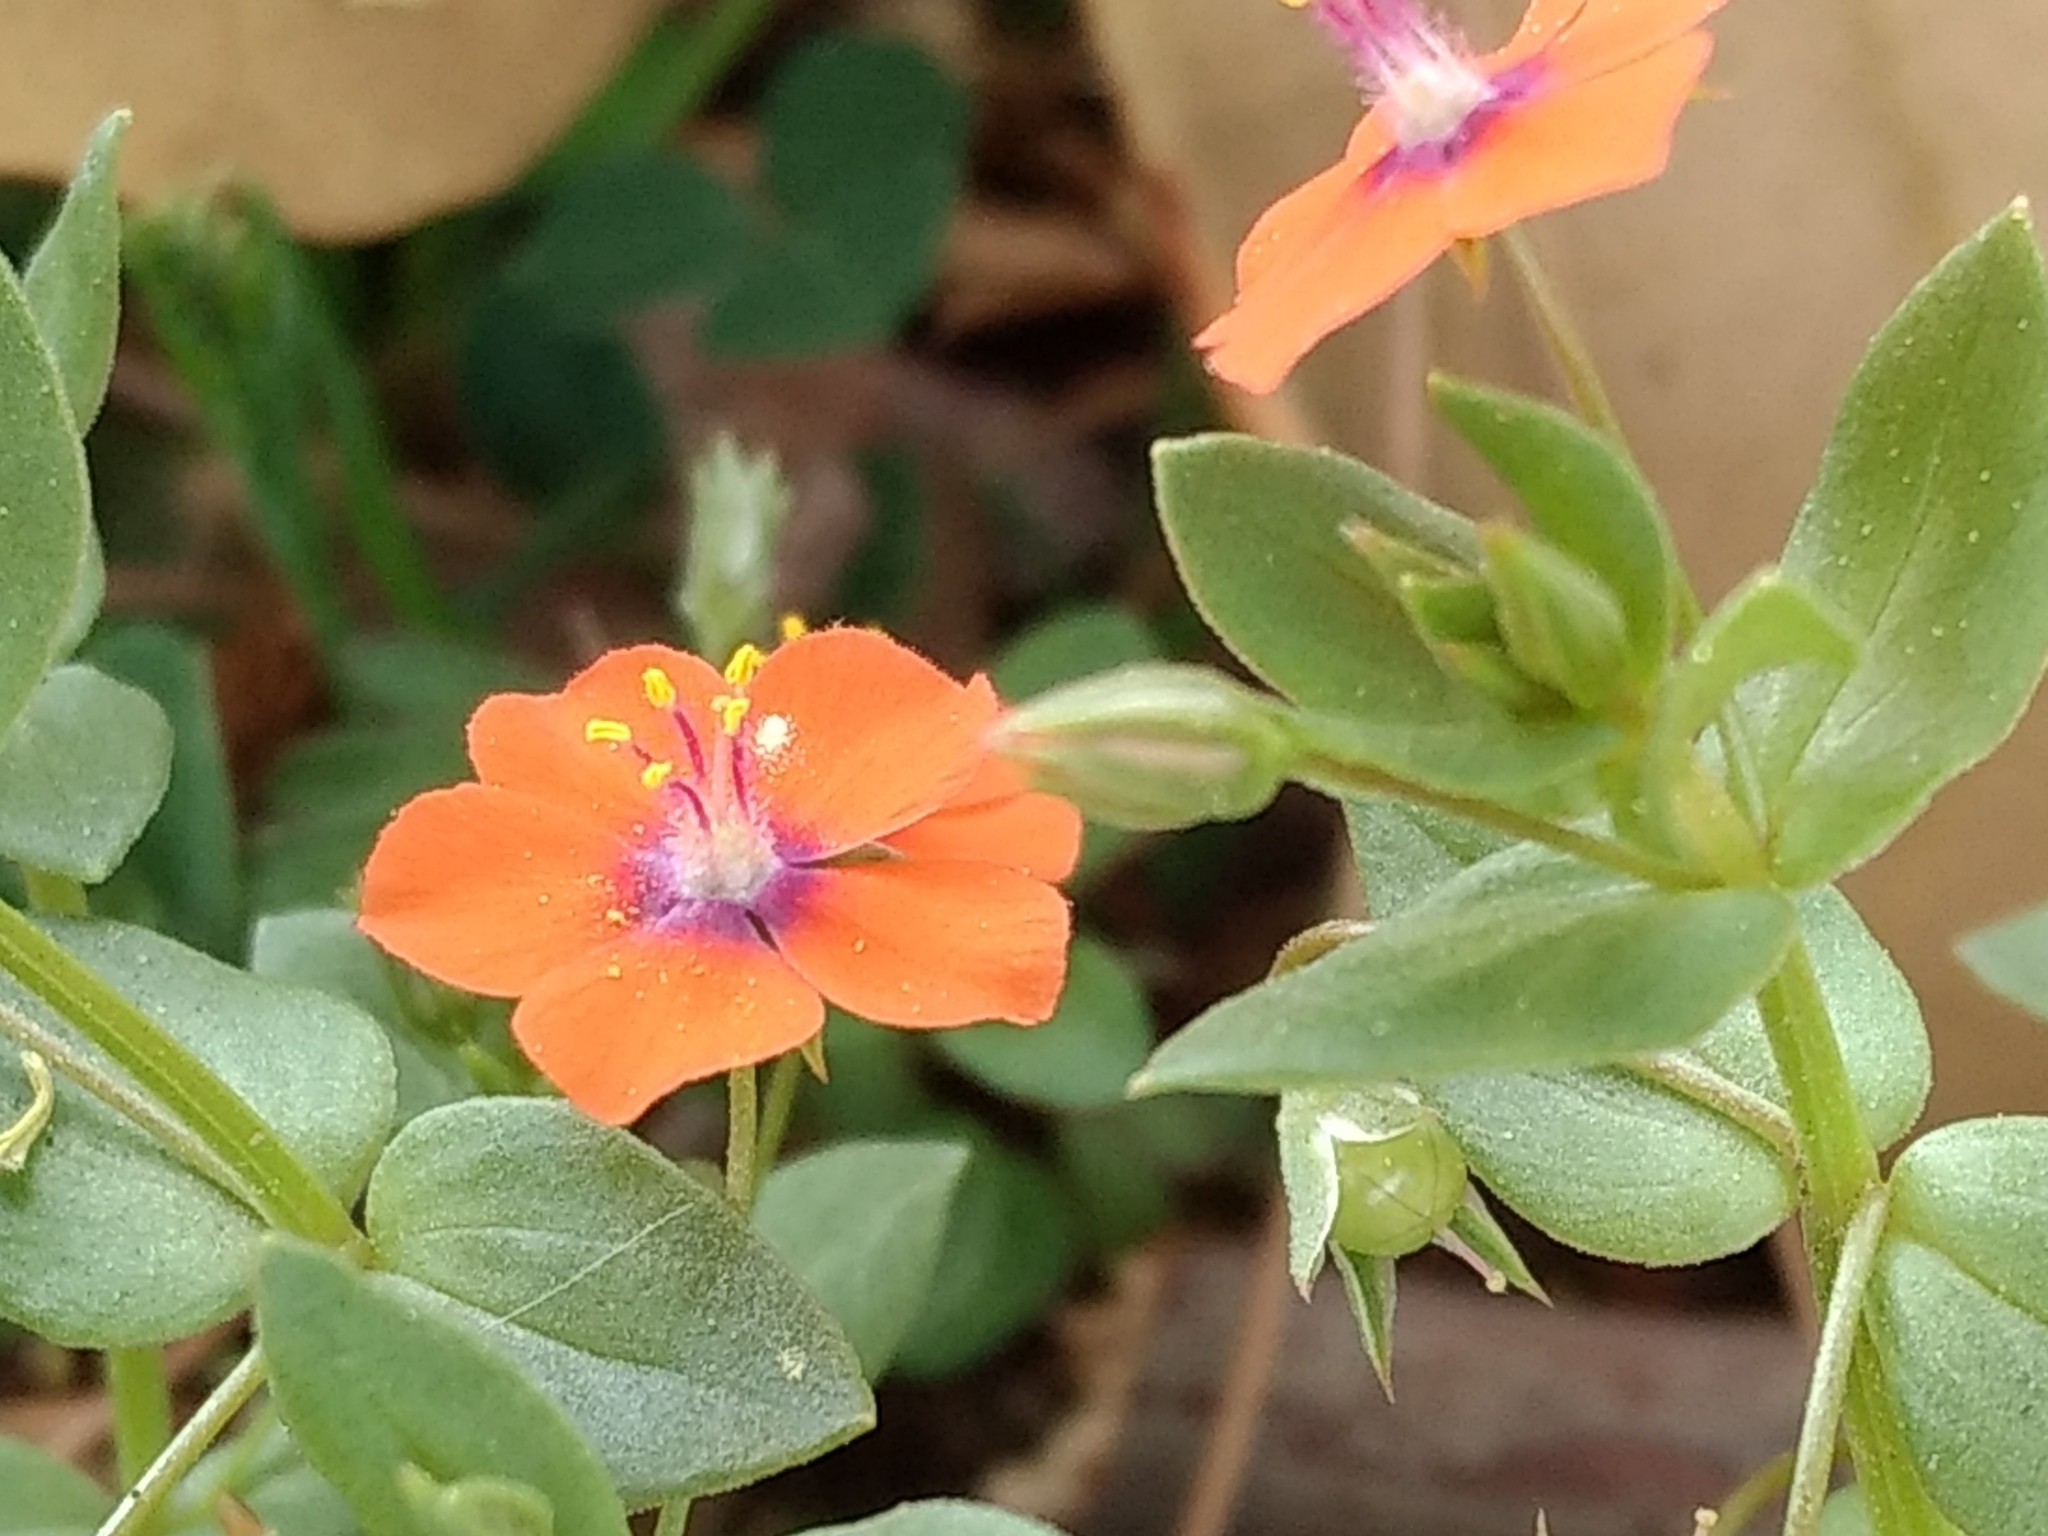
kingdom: Plantae
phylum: Tracheophyta
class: Magnoliopsida
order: Ericales
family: Primulaceae
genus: Lysimachia
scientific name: Lysimachia arvensis
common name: Scarlet pimpernel
